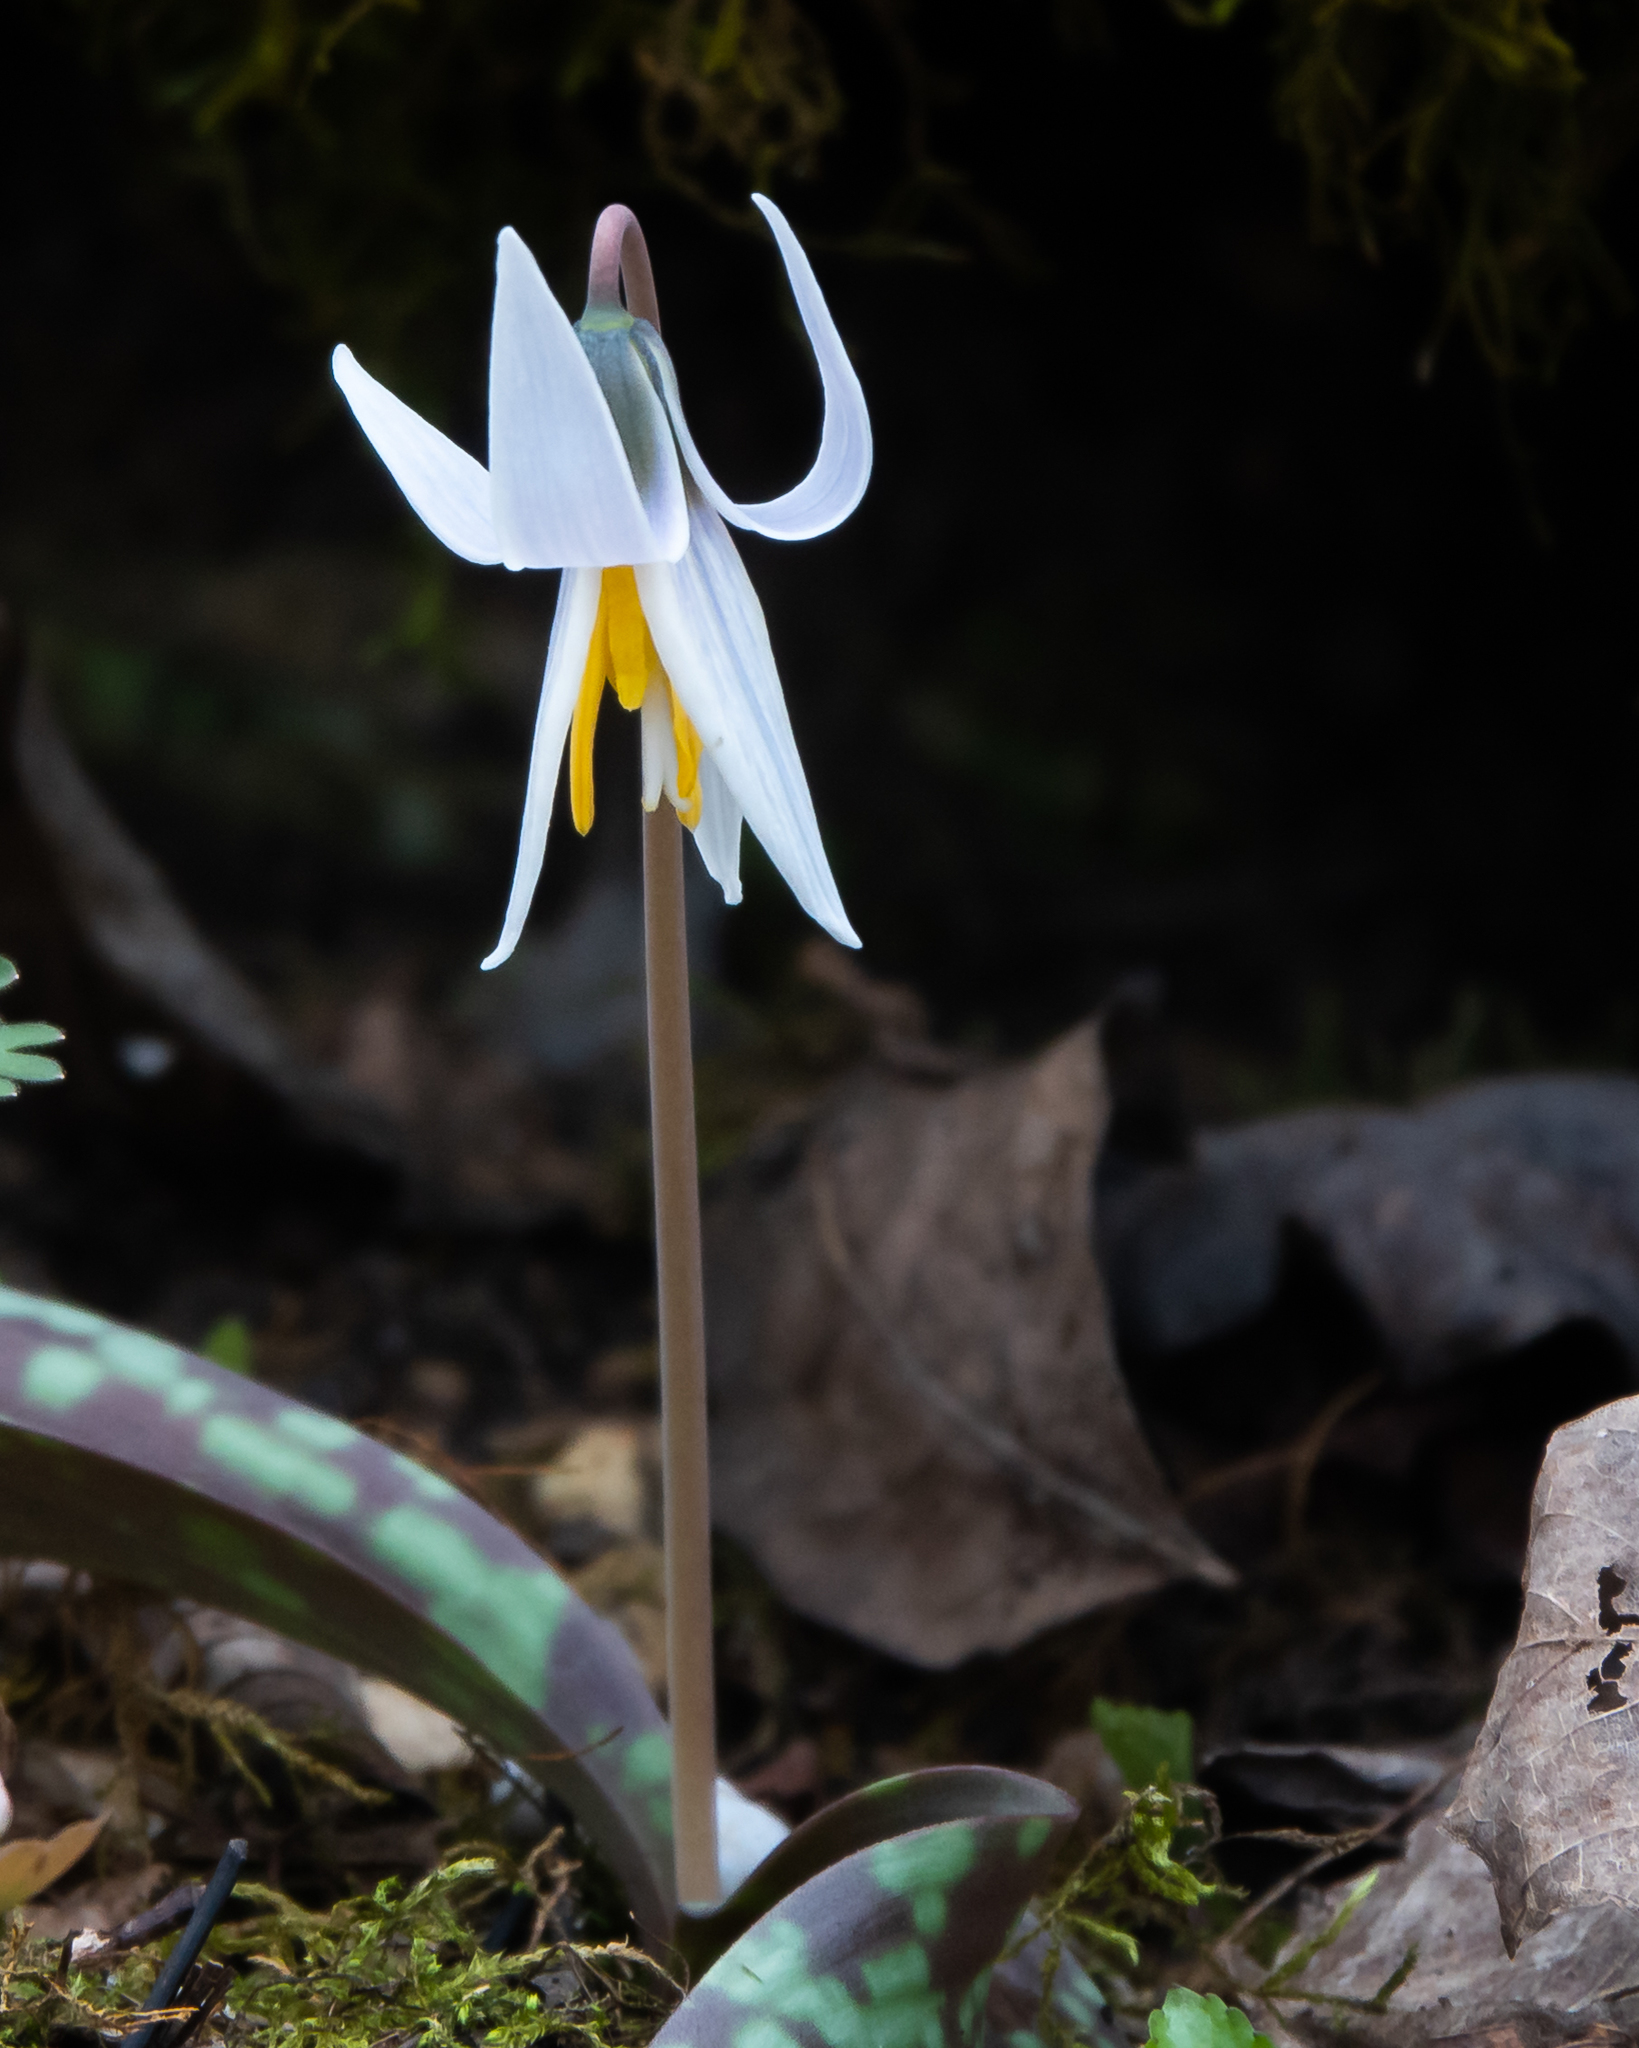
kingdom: Plantae
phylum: Tracheophyta
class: Liliopsida
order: Liliales
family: Liliaceae
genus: Erythronium
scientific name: Erythronium albidum
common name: White trout-lily
